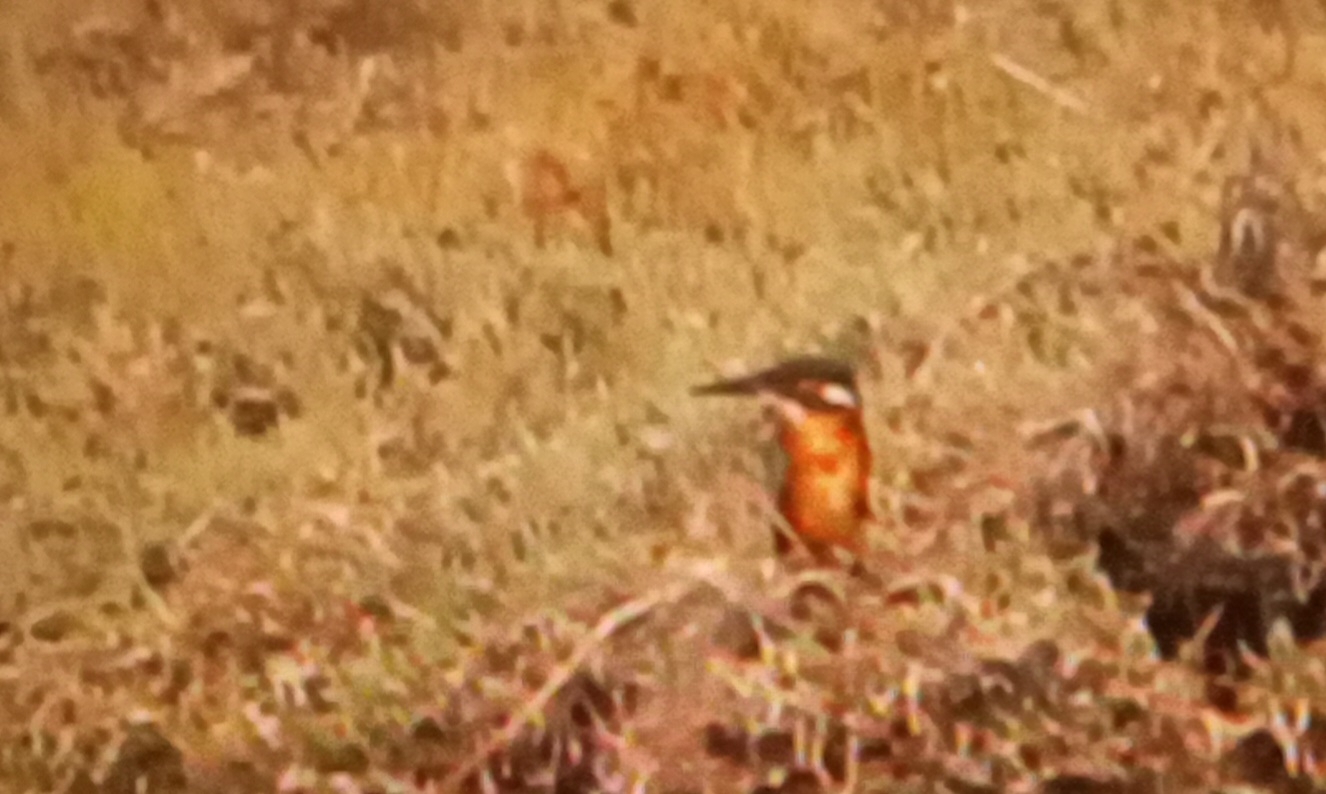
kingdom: Animalia
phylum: Chordata
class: Aves
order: Coraciiformes
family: Alcedinidae
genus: Alcedo
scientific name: Alcedo atthis
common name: Common kingfisher
